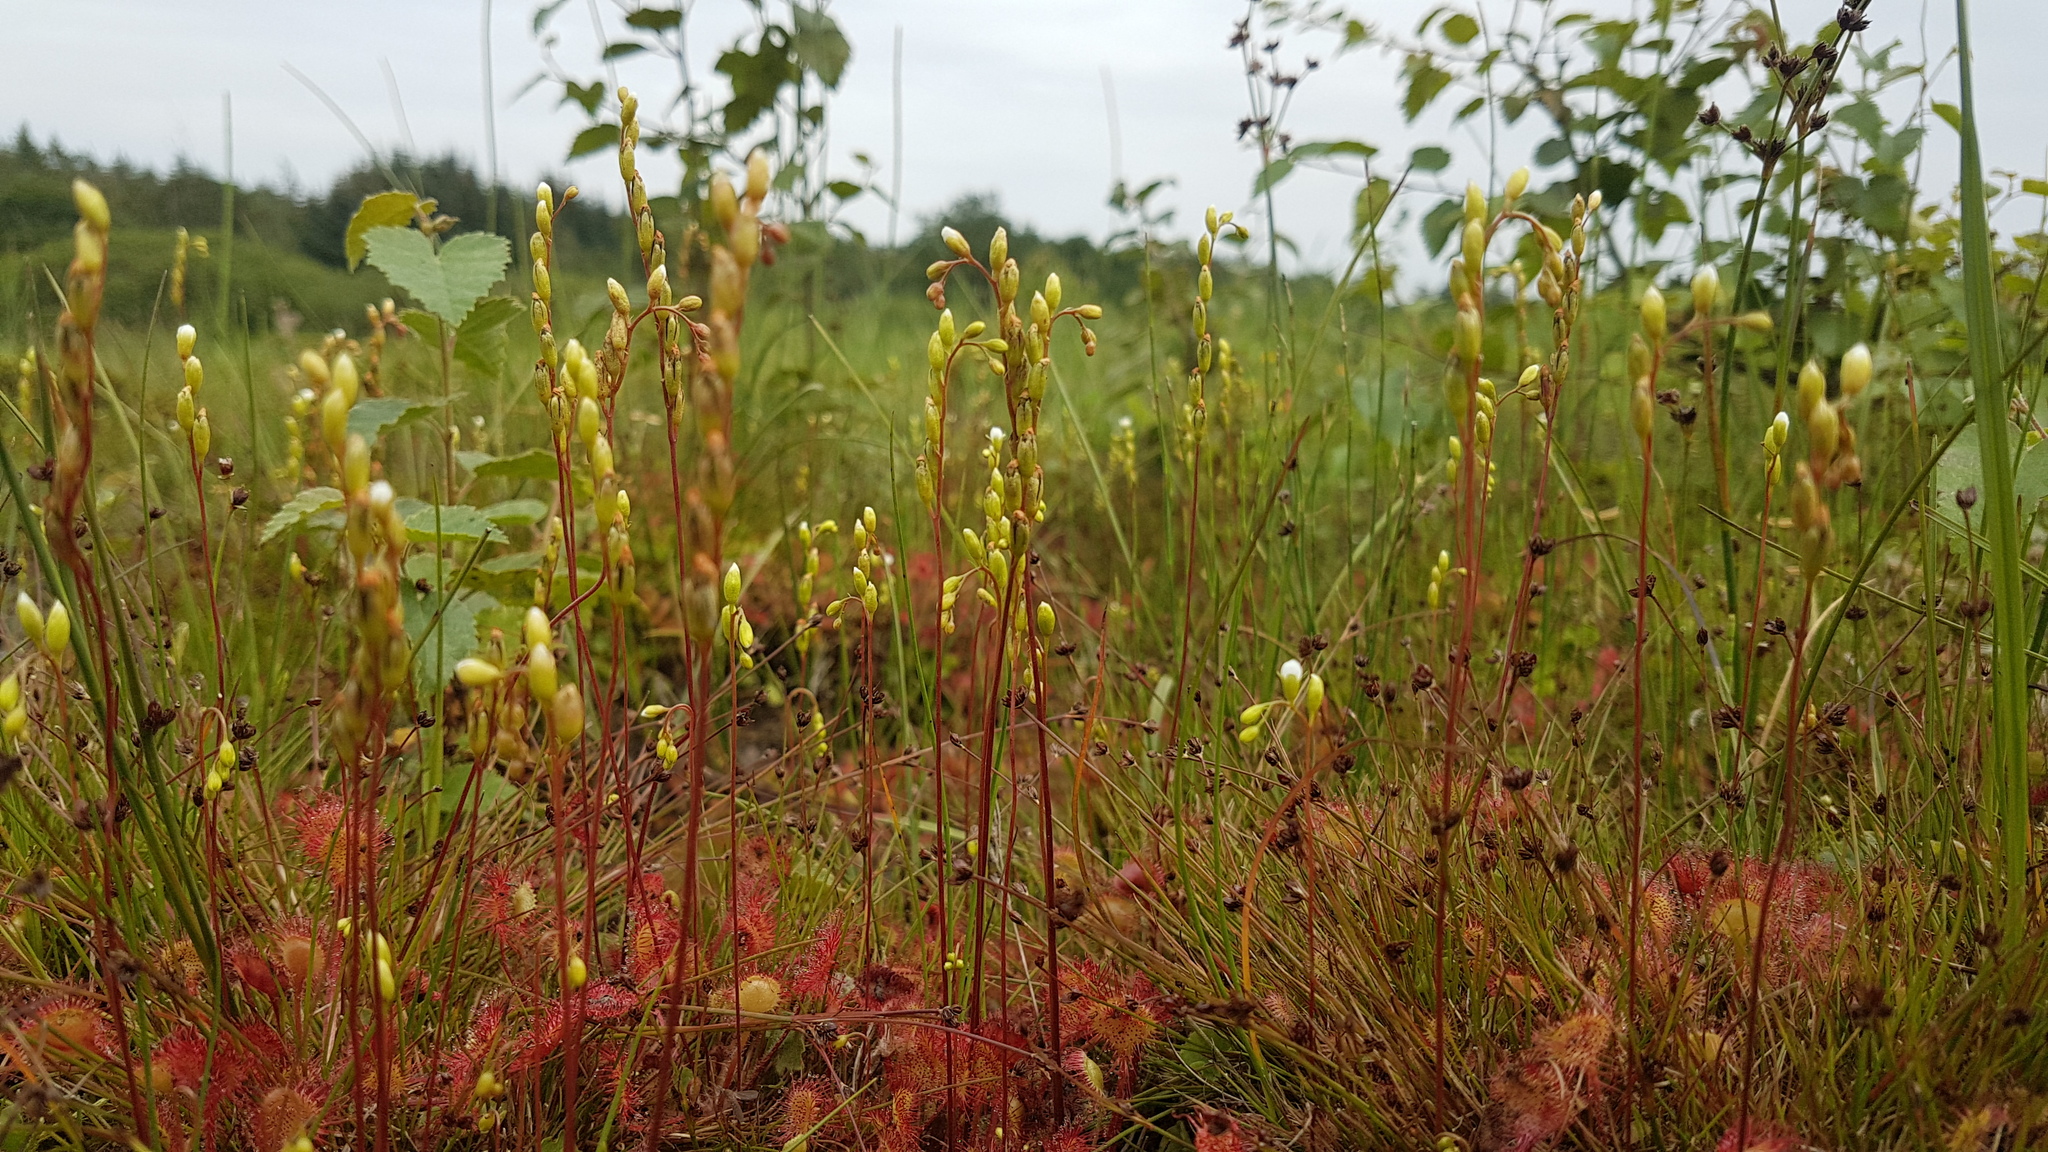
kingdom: Plantae
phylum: Tracheophyta
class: Magnoliopsida
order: Caryophyllales
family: Droseraceae
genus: Drosera
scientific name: Drosera rotundifolia
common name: Round-leaved sundew
